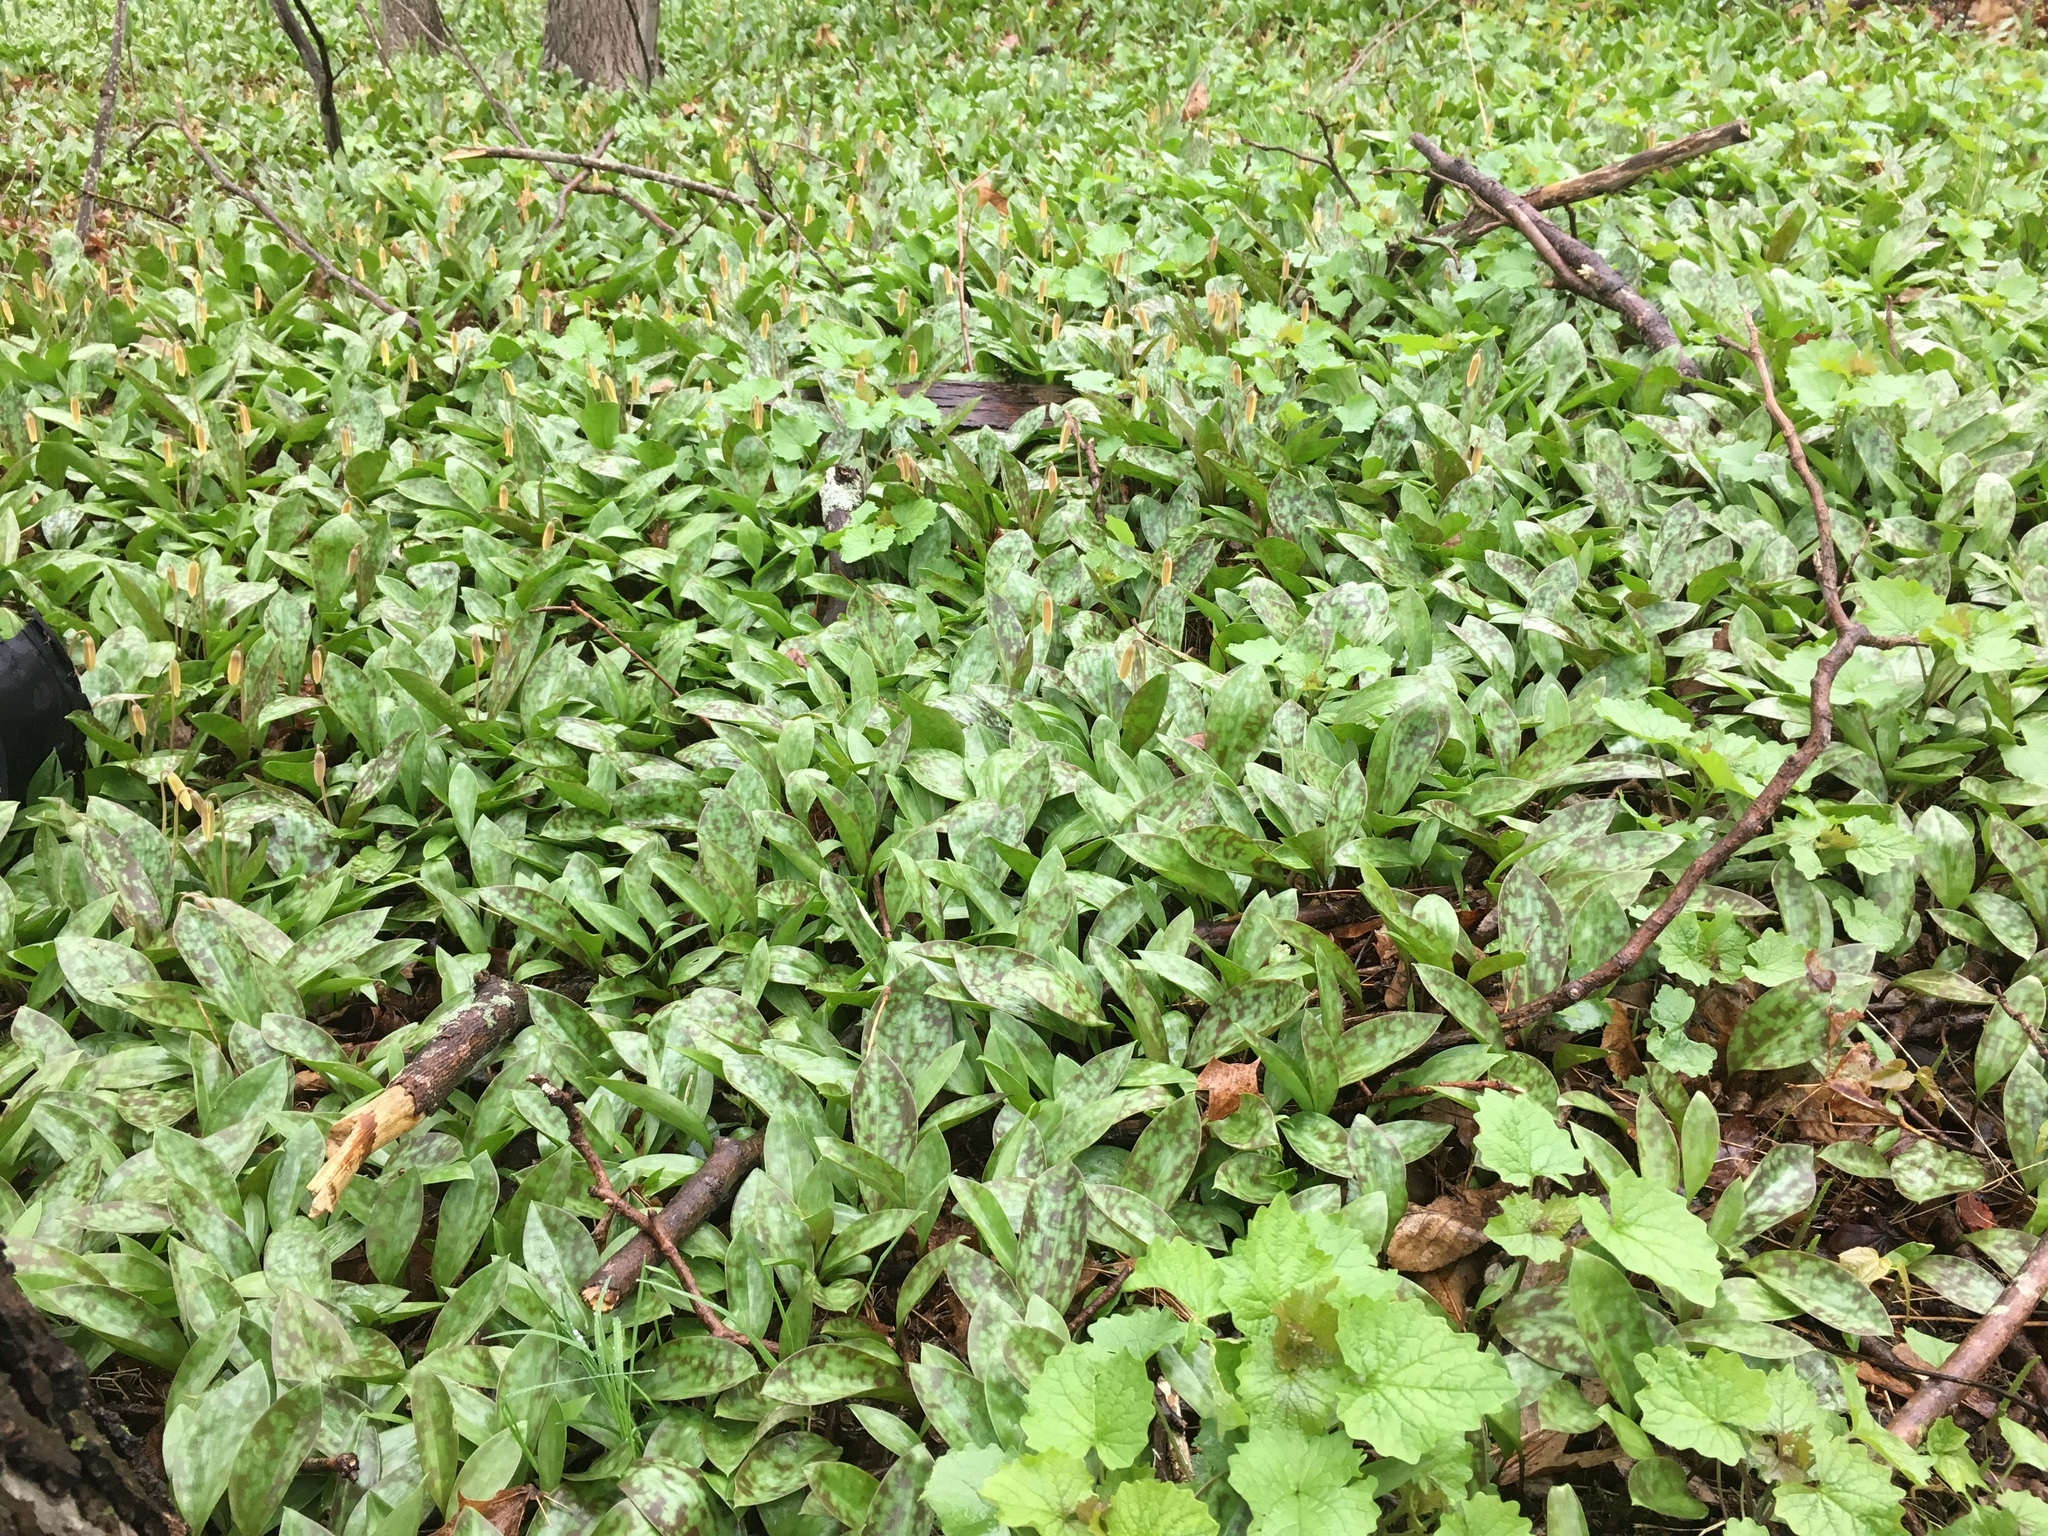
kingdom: Plantae
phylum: Tracheophyta
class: Liliopsida
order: Liliales
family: Liliaceae
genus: Erythronium
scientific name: Erythronium americanum
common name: Yellow adder's-tongue
